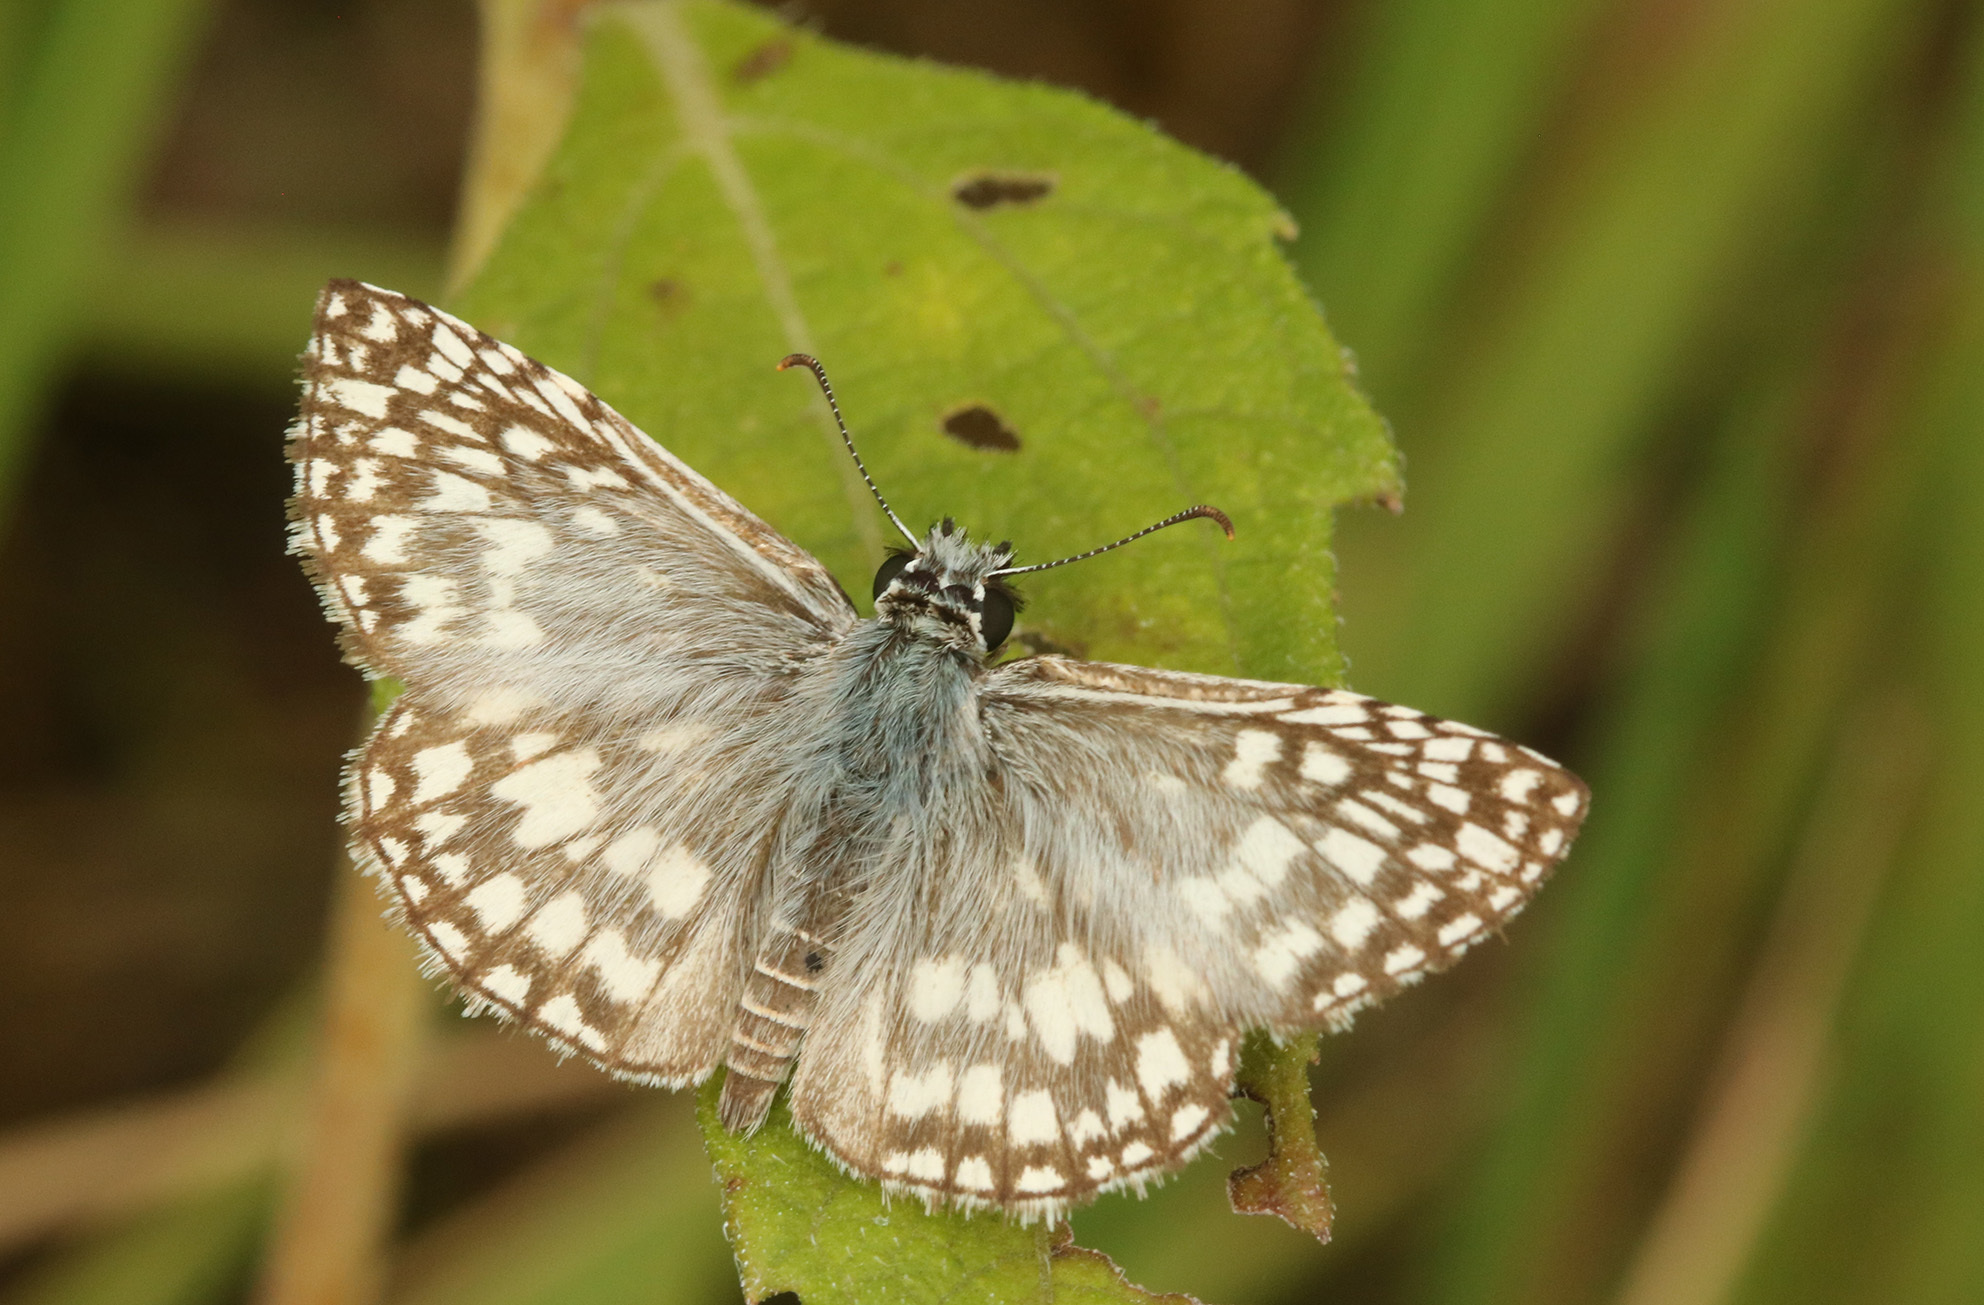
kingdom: Animalia
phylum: Arthropoda
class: Insecta
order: Lepidoptera
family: Hesperiidae
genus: Pyrgus
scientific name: Pyrgus oileus
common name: Tropical checkered-skipper
